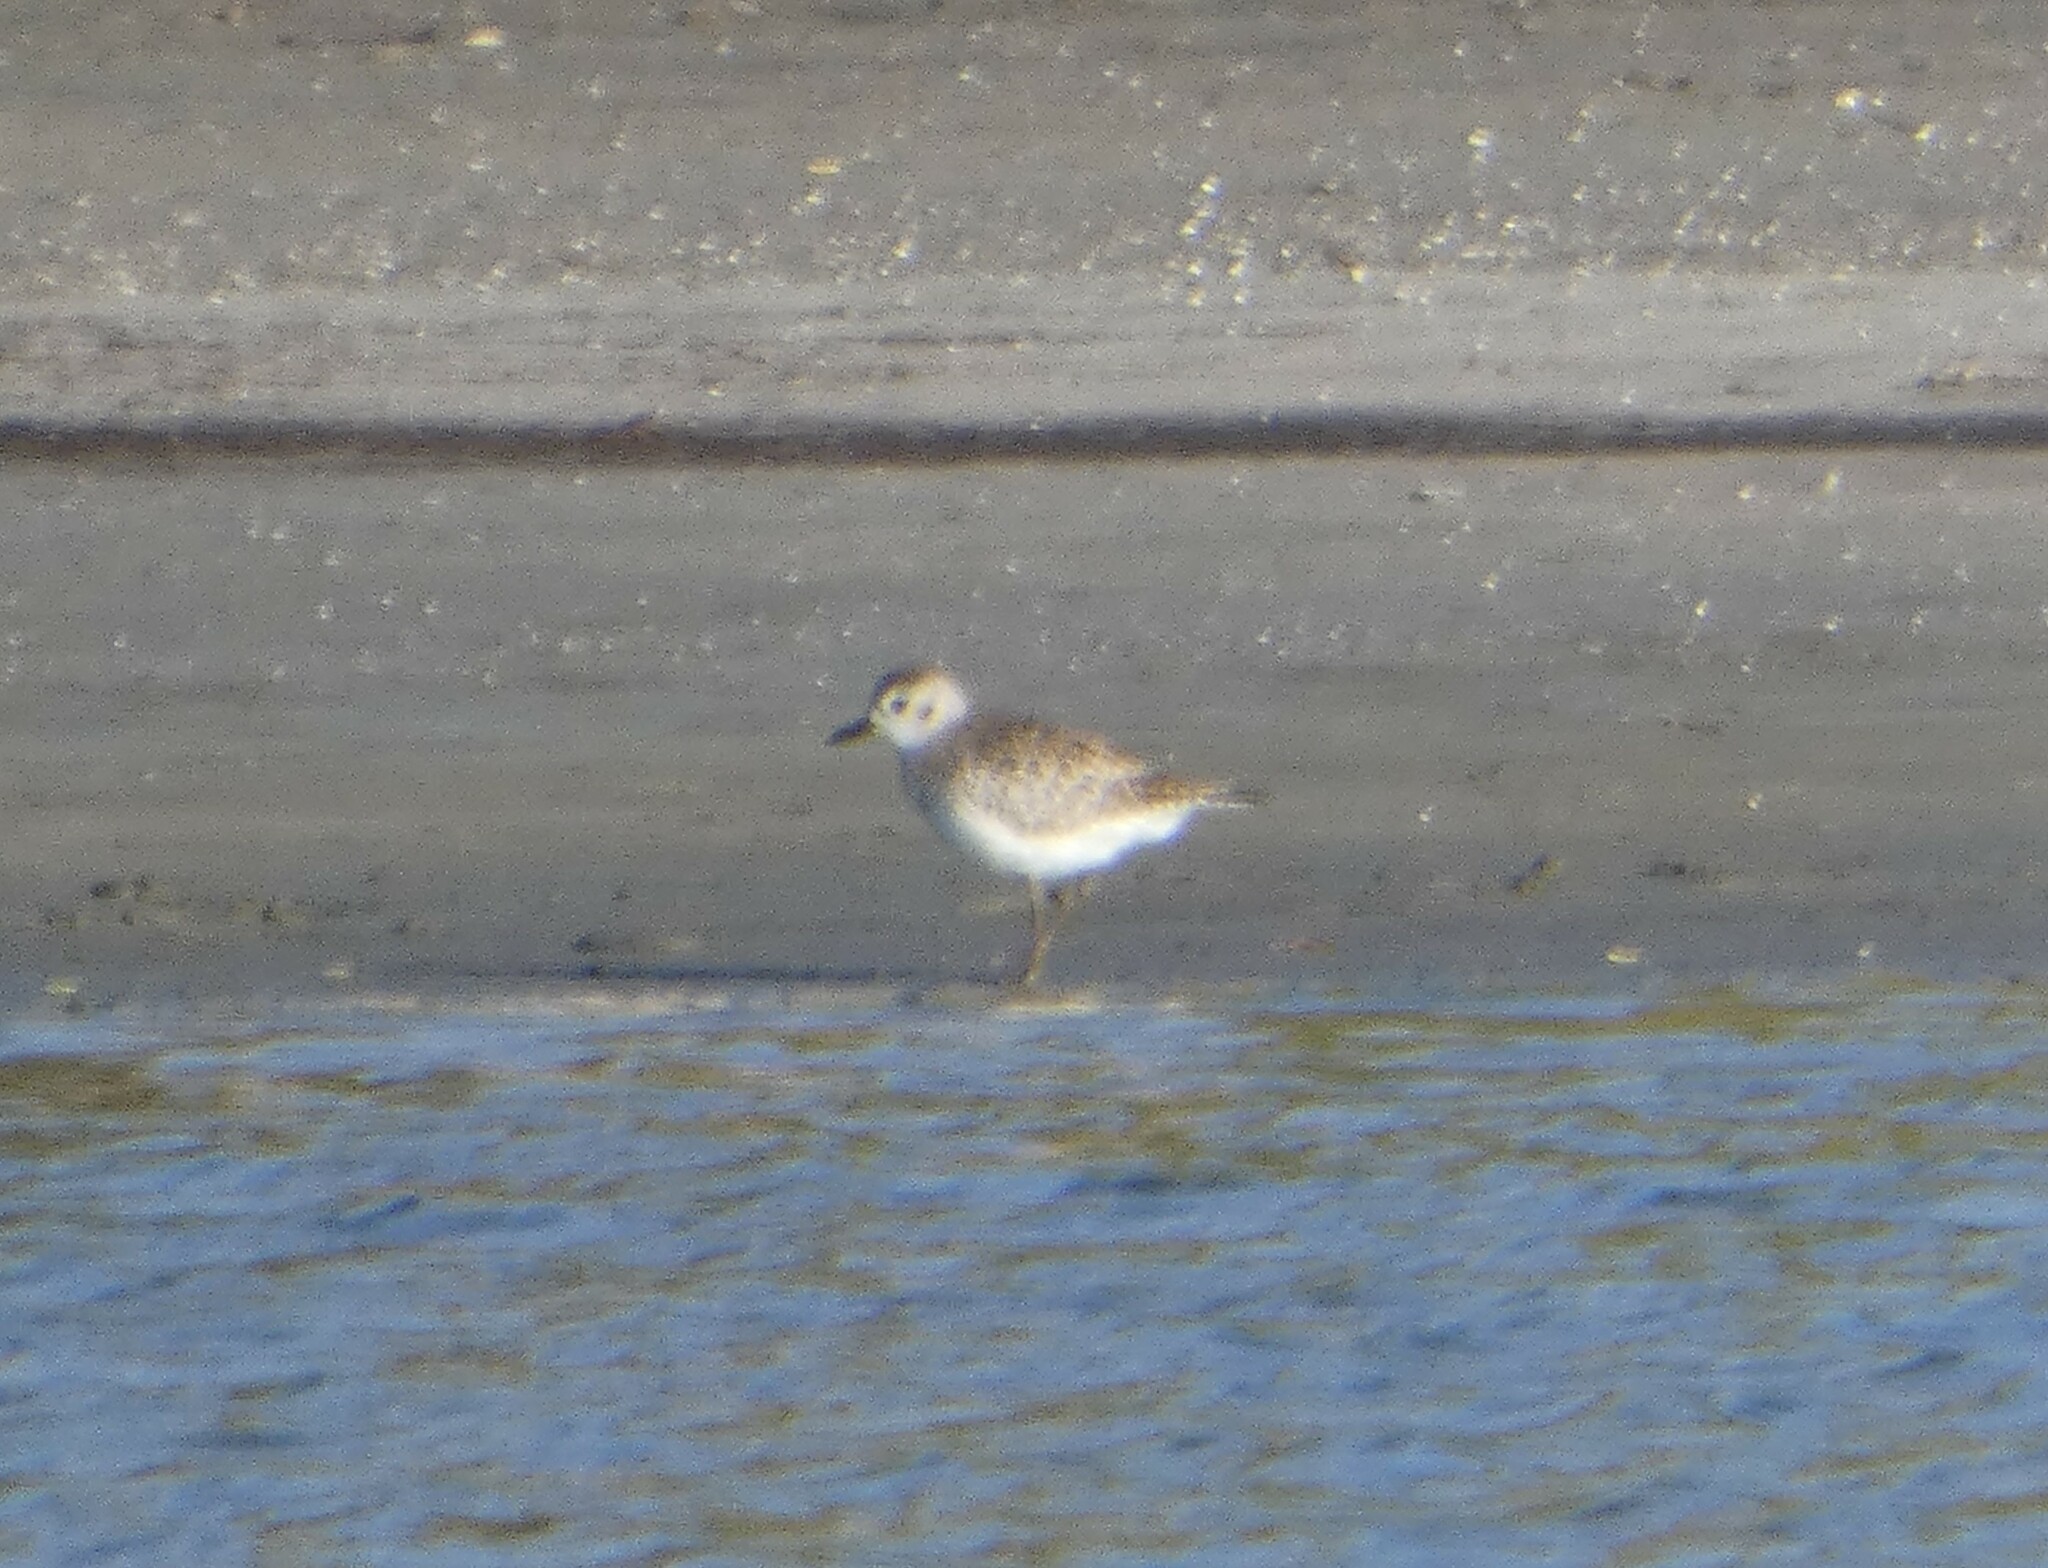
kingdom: Animalia
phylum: Chordata
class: Aves
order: Charadriiformes
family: Charadriidae
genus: Pluvialis
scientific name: Pluvialis squatarola
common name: Grey plover
